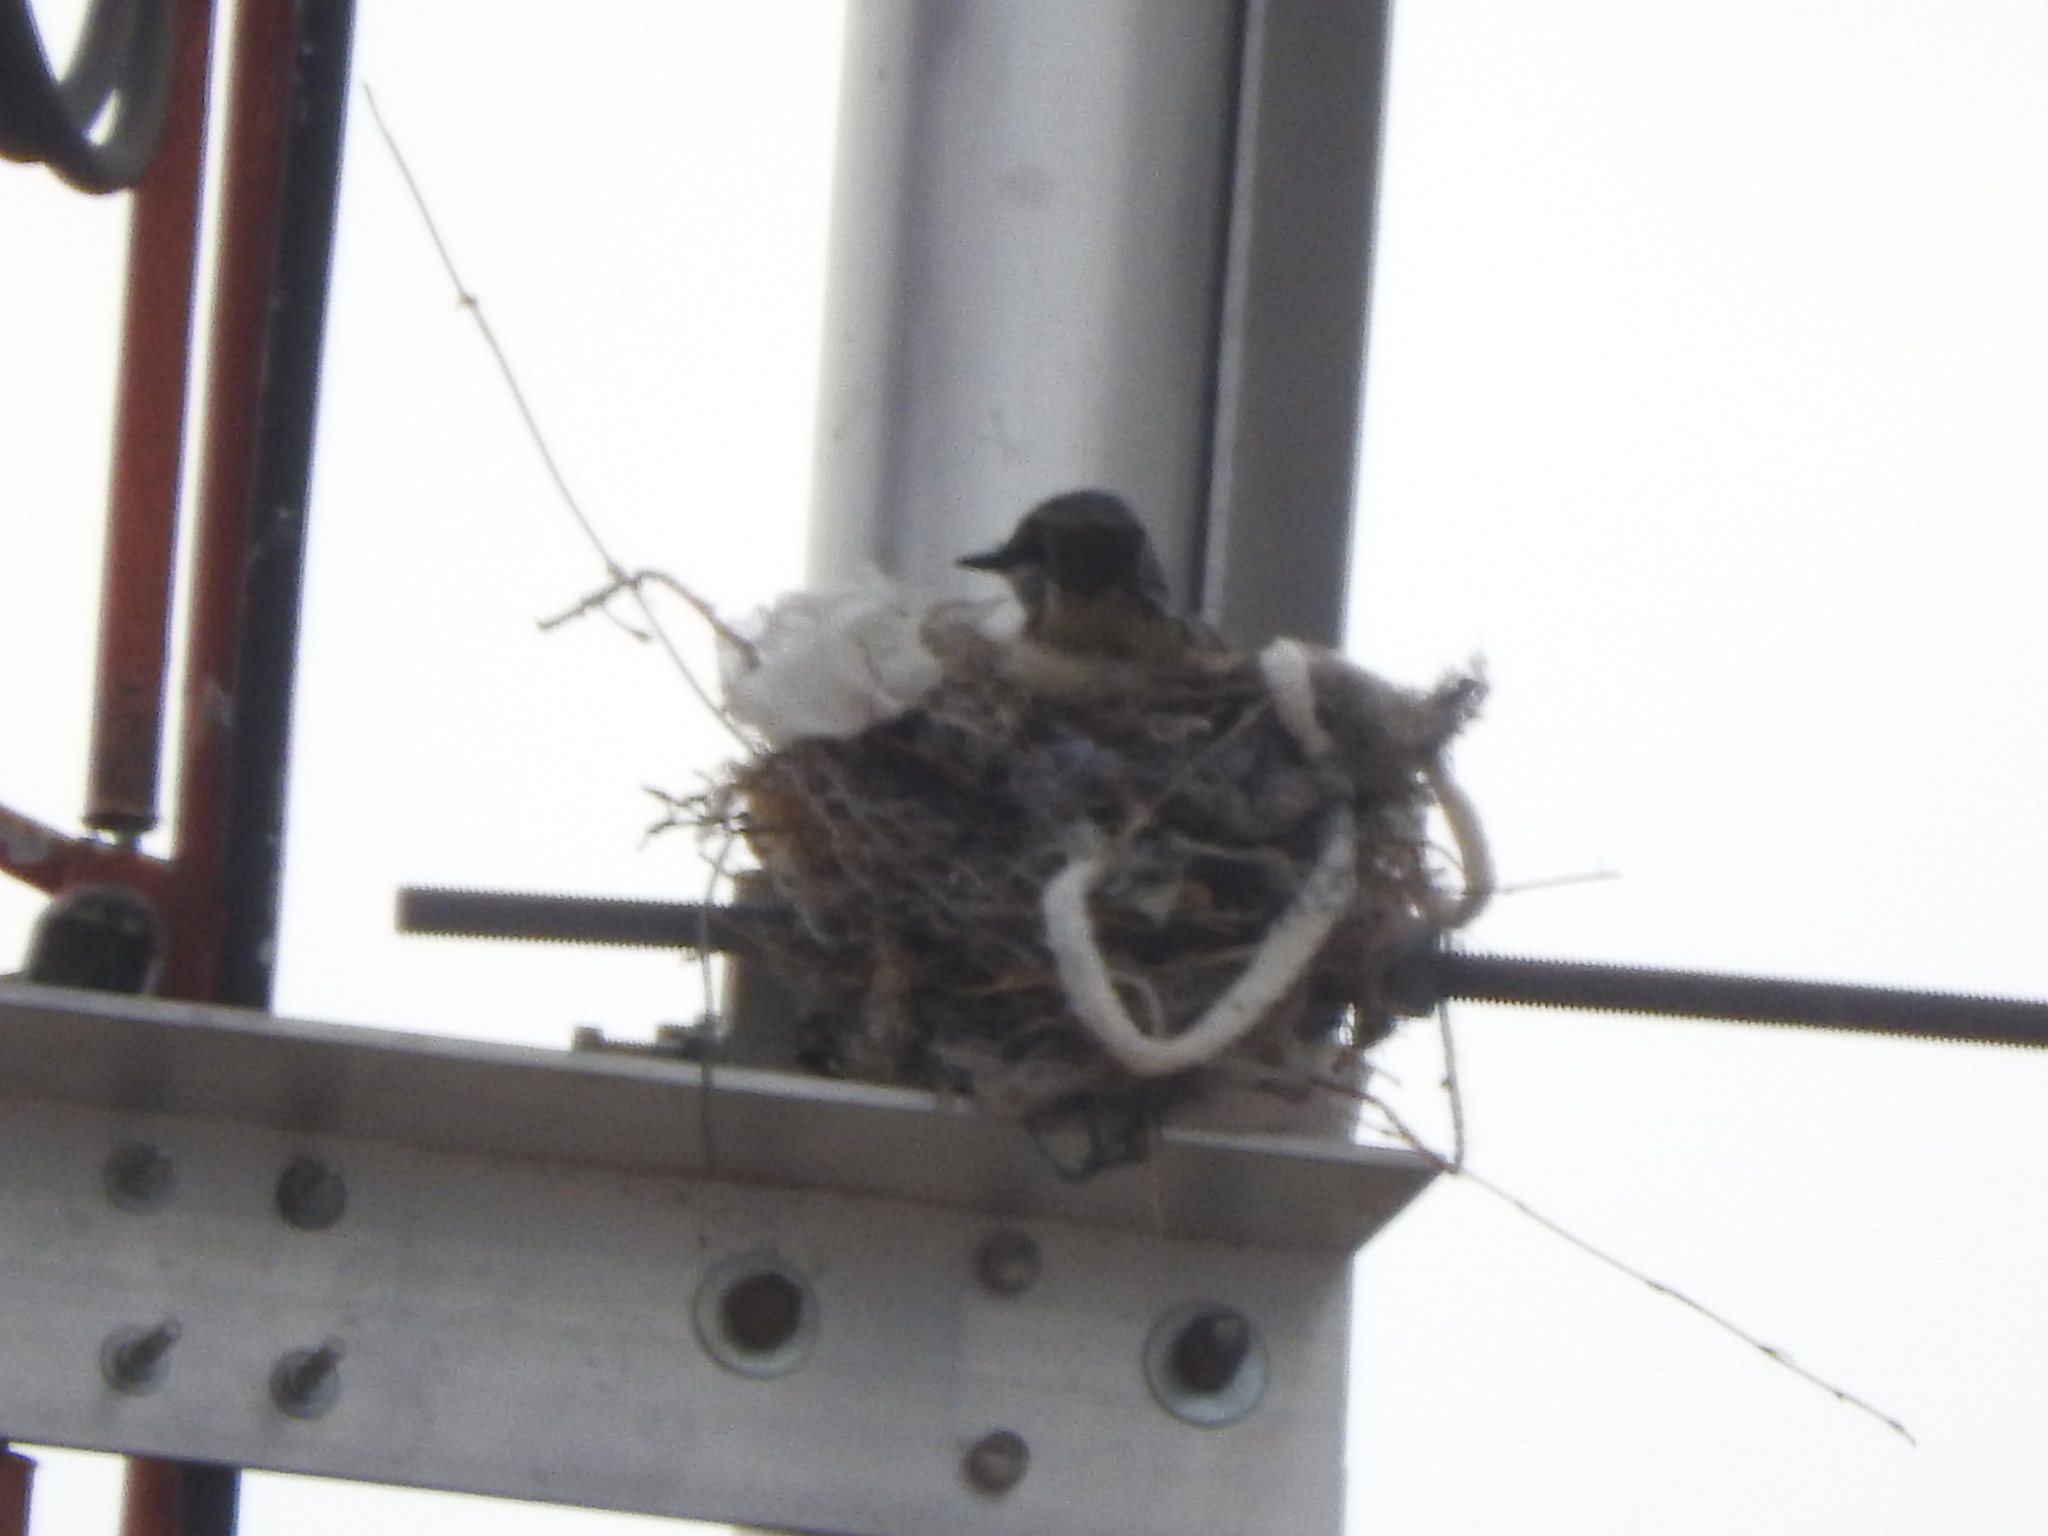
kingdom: Animalia
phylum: Chordata
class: Aves
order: Passeriformes
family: Tyrannidae
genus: Tyrannus
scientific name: Tyrannus vociferans
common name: Cassin's kingbird
